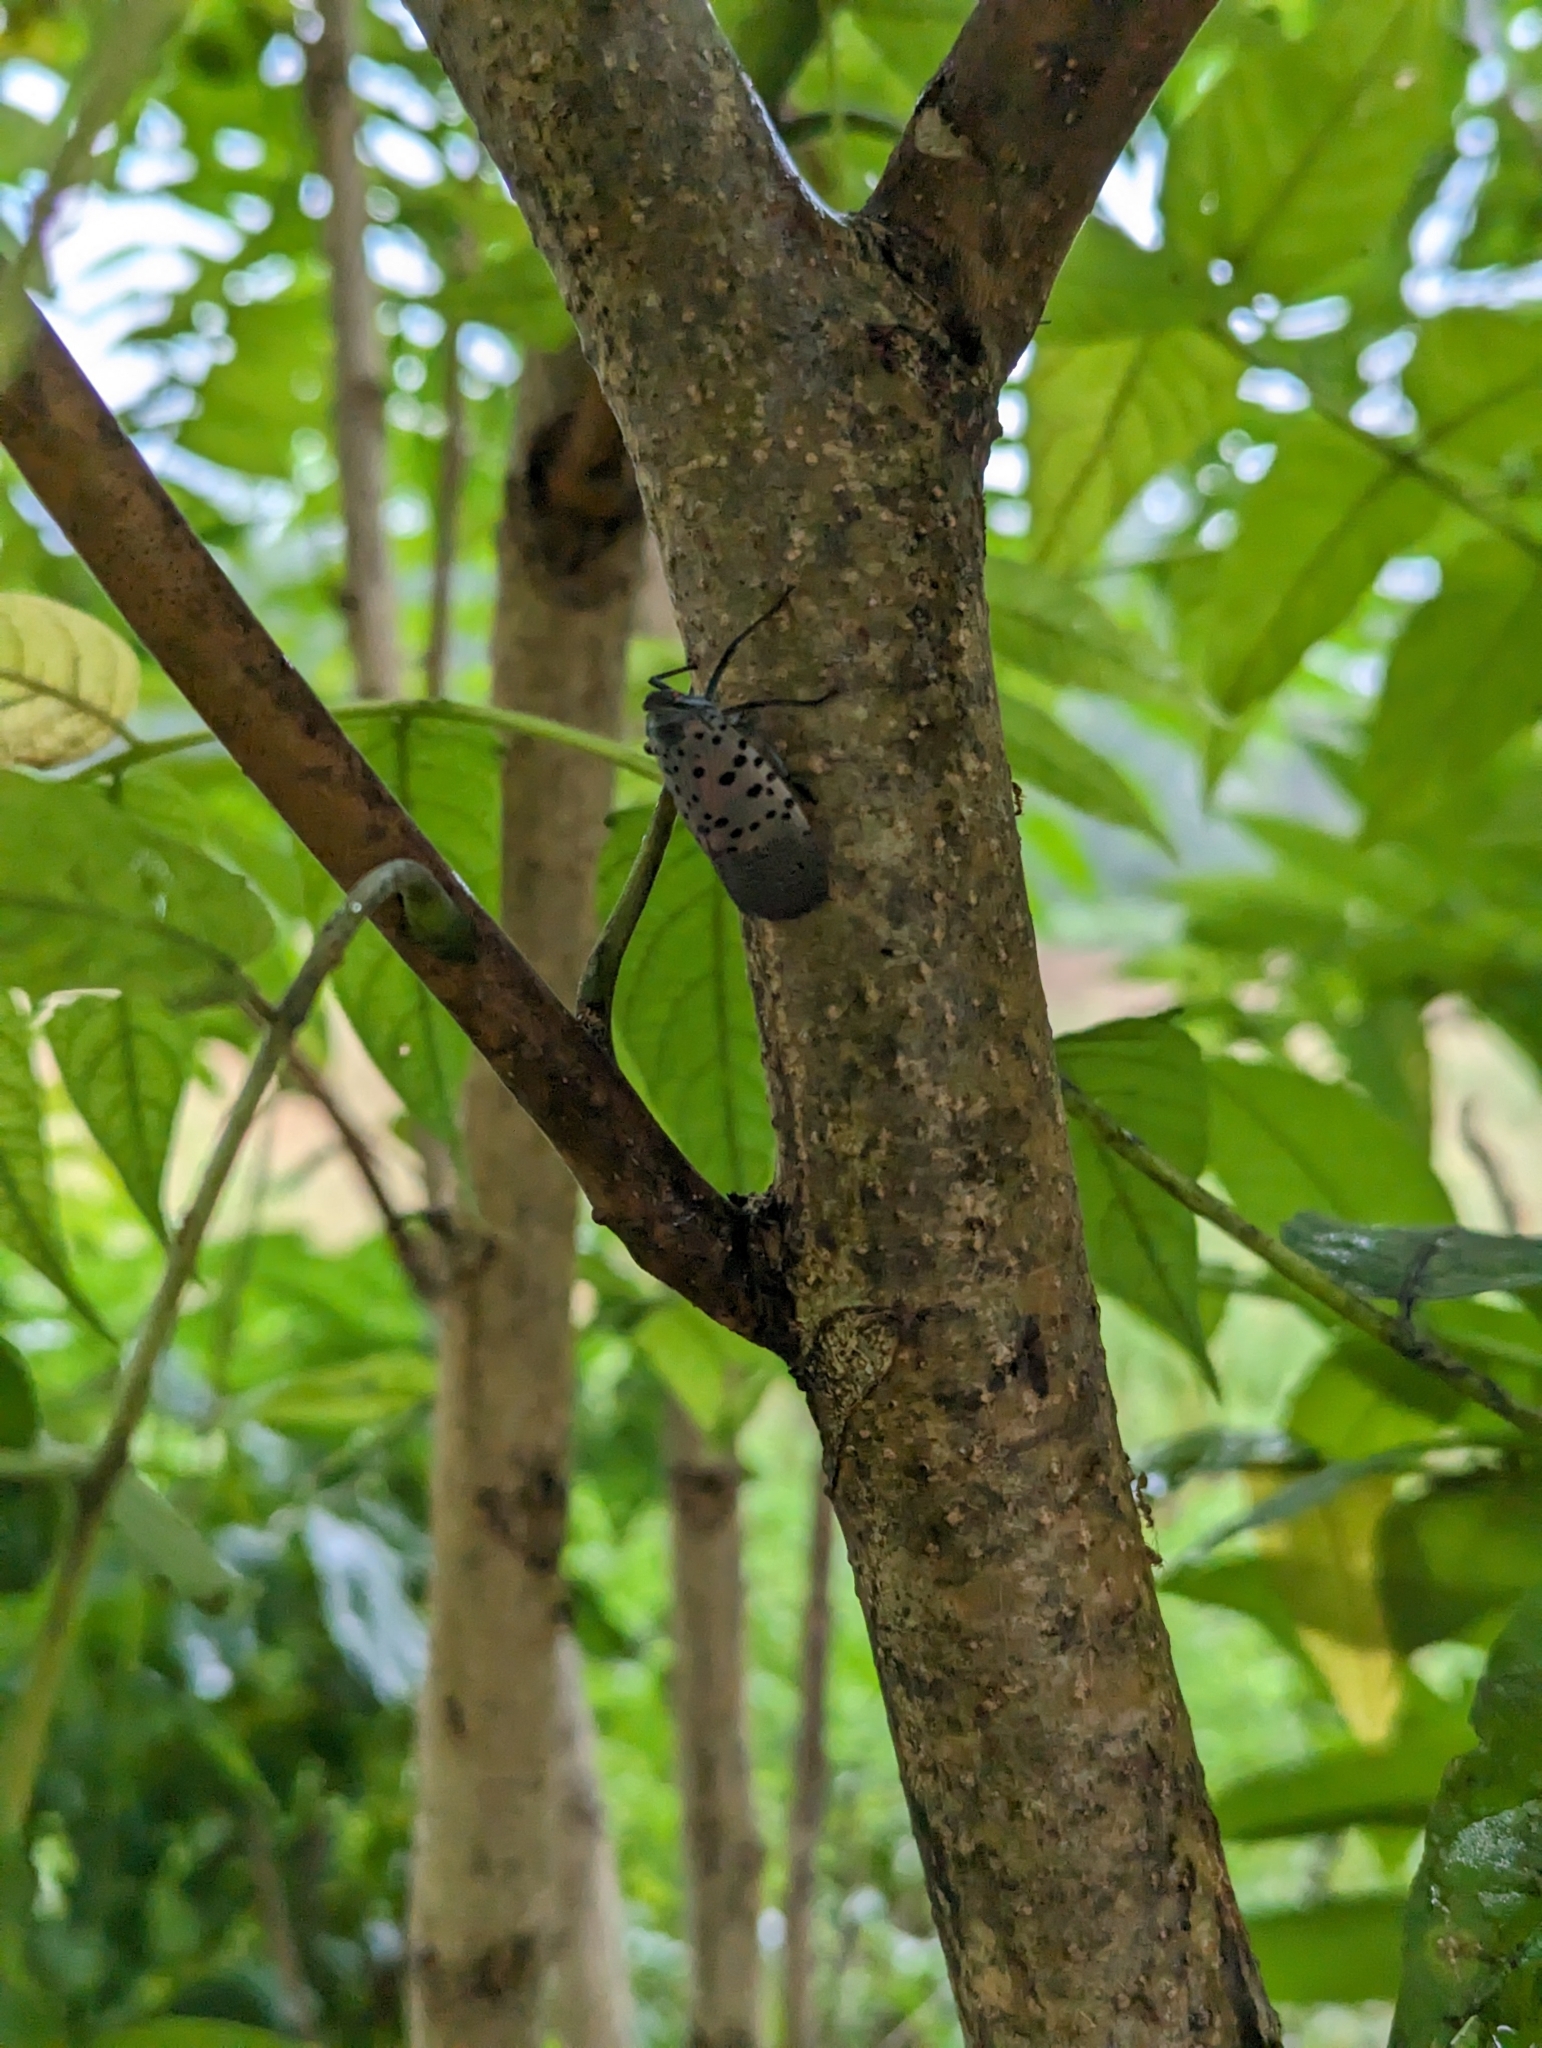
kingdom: Animalia
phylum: Arthropoda
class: Insecta
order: Hemiptera
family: Fulgoridae
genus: Lycorma
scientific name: Lycorma delicatula
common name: Spotted lanternfly
